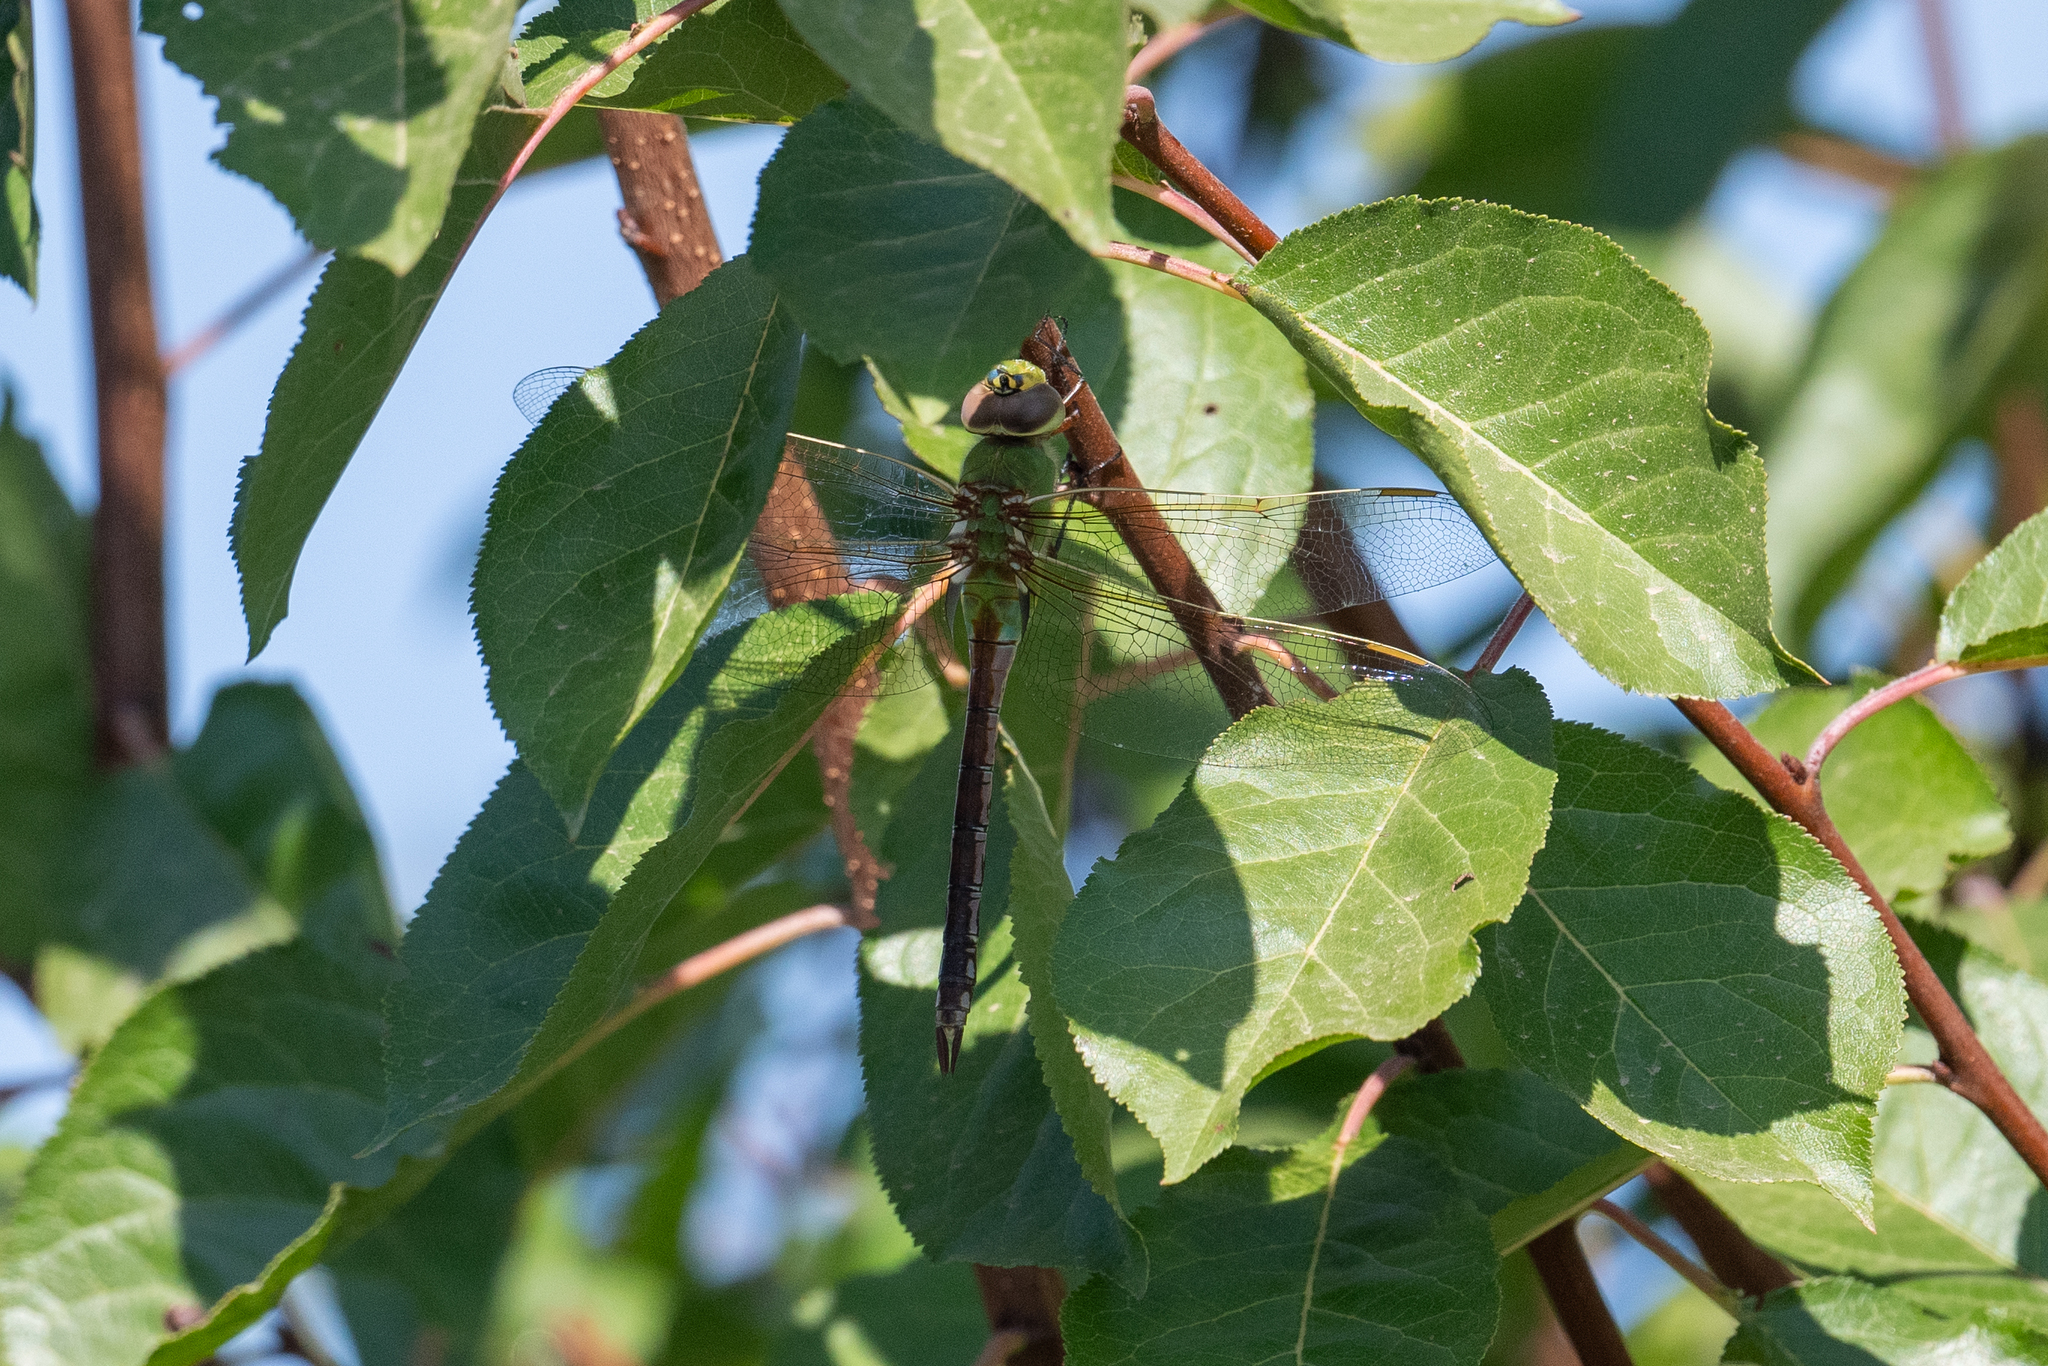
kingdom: Animalia
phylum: Arthropoda
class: Insecta
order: Odonata
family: Aeshnidae
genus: Anax
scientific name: Anax junius
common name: Common green darner
